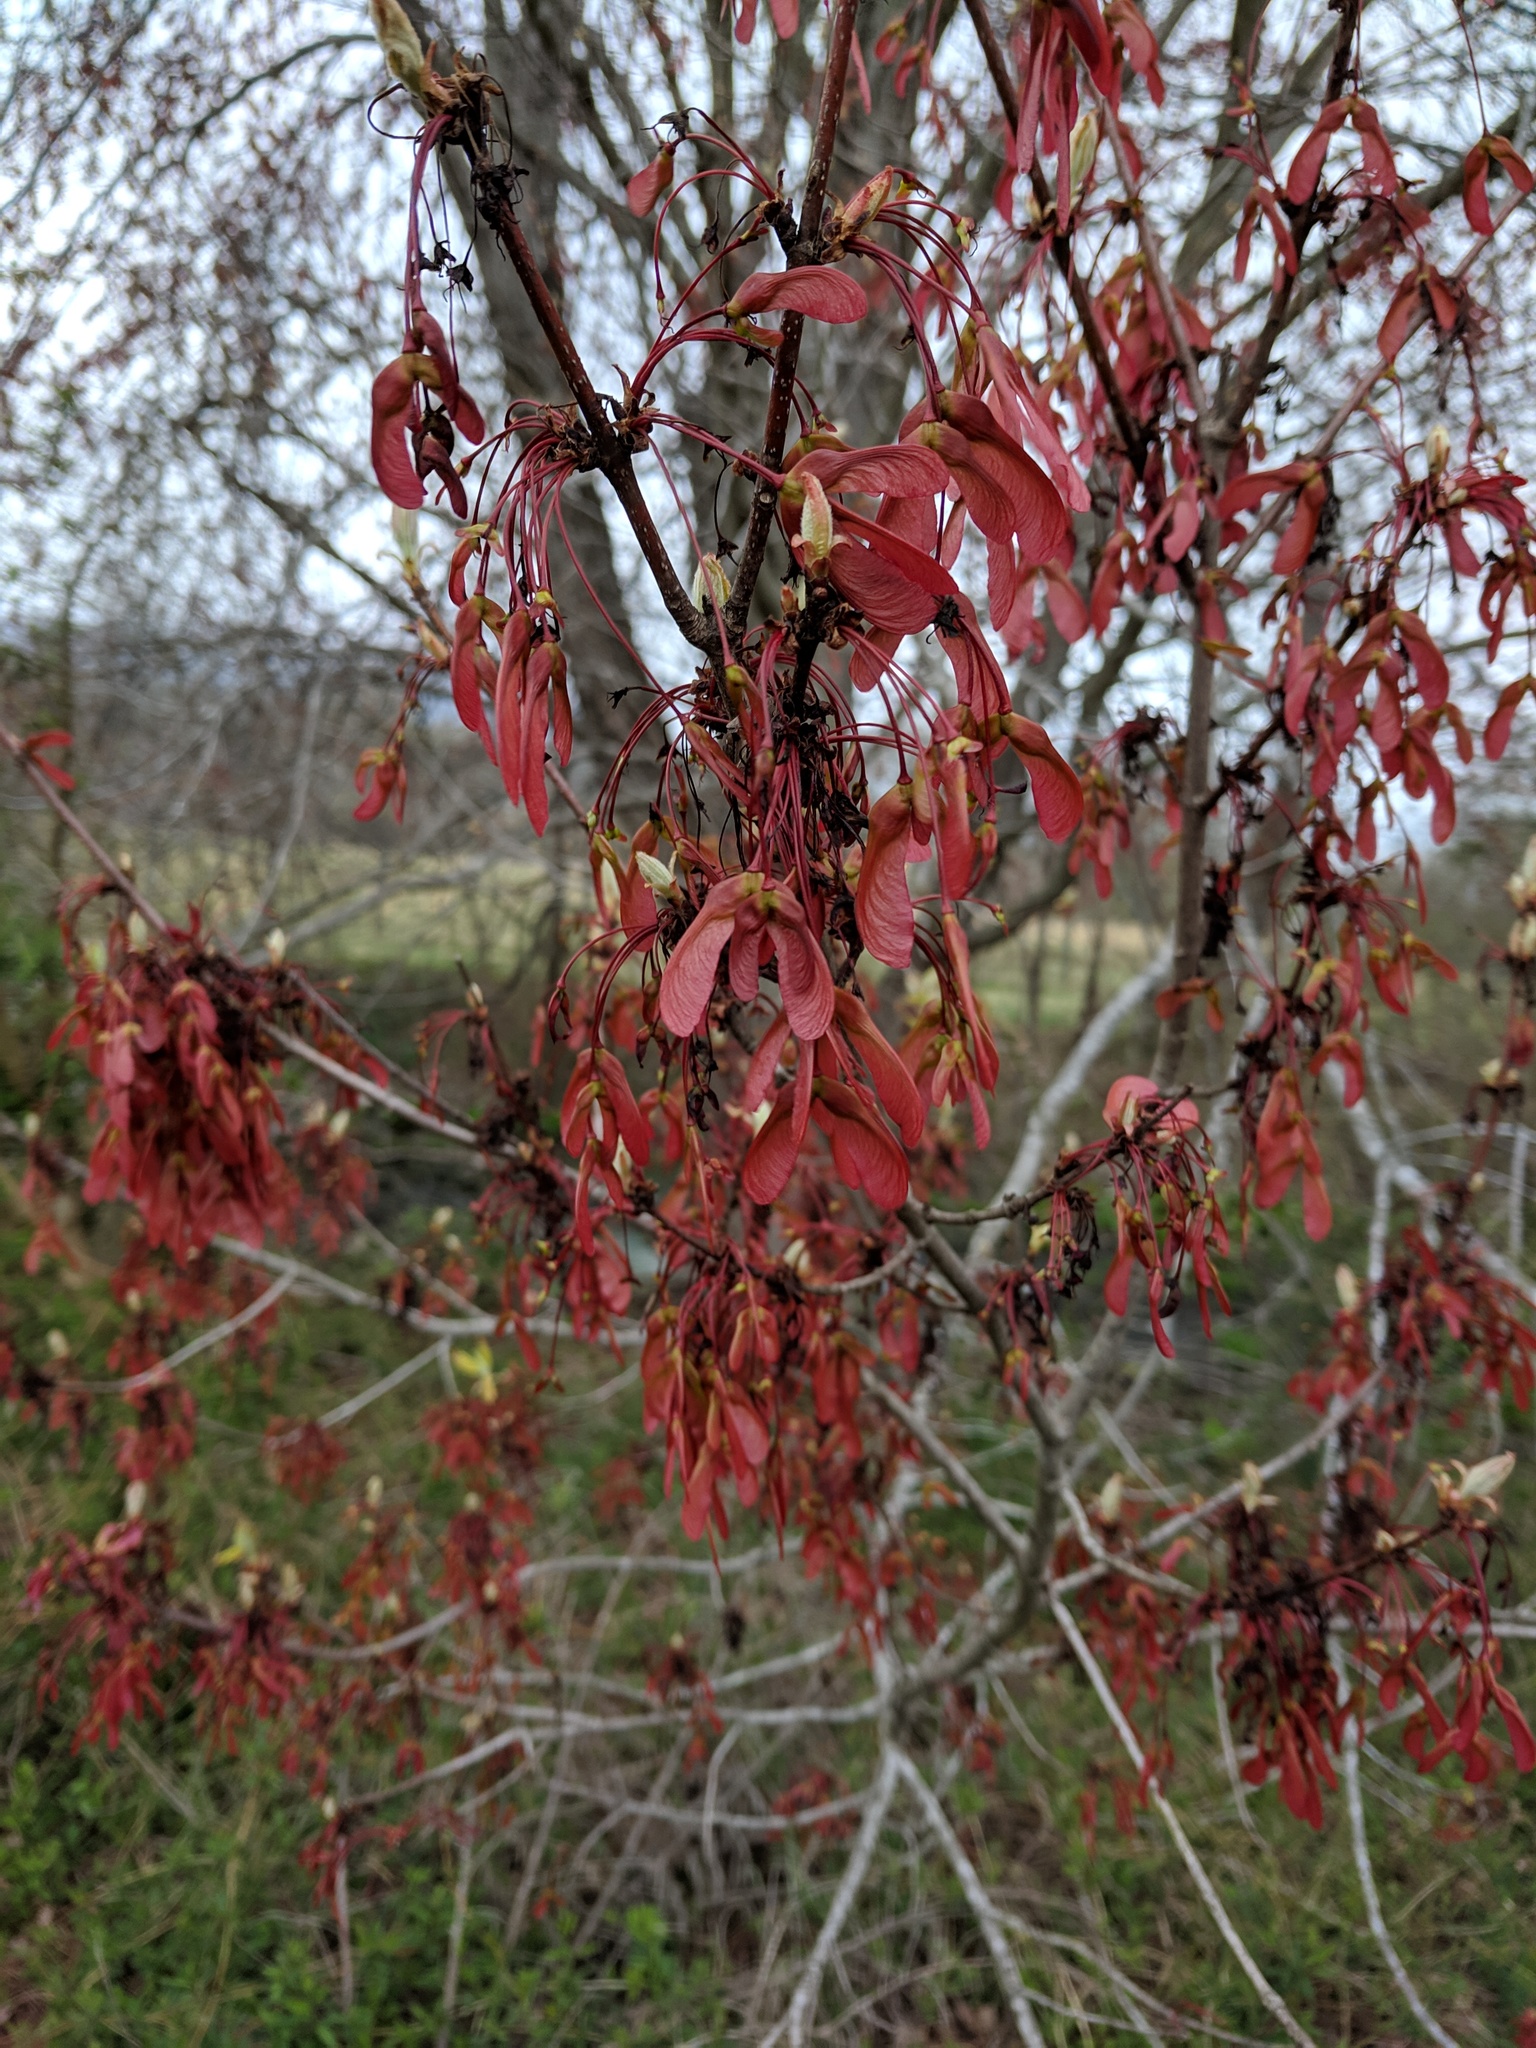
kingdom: Plantae
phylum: Tracheophyta
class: Magnoliopsida
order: Sapindales
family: Sapindaceae
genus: Acer
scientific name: Acer rubrum
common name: Red maple
